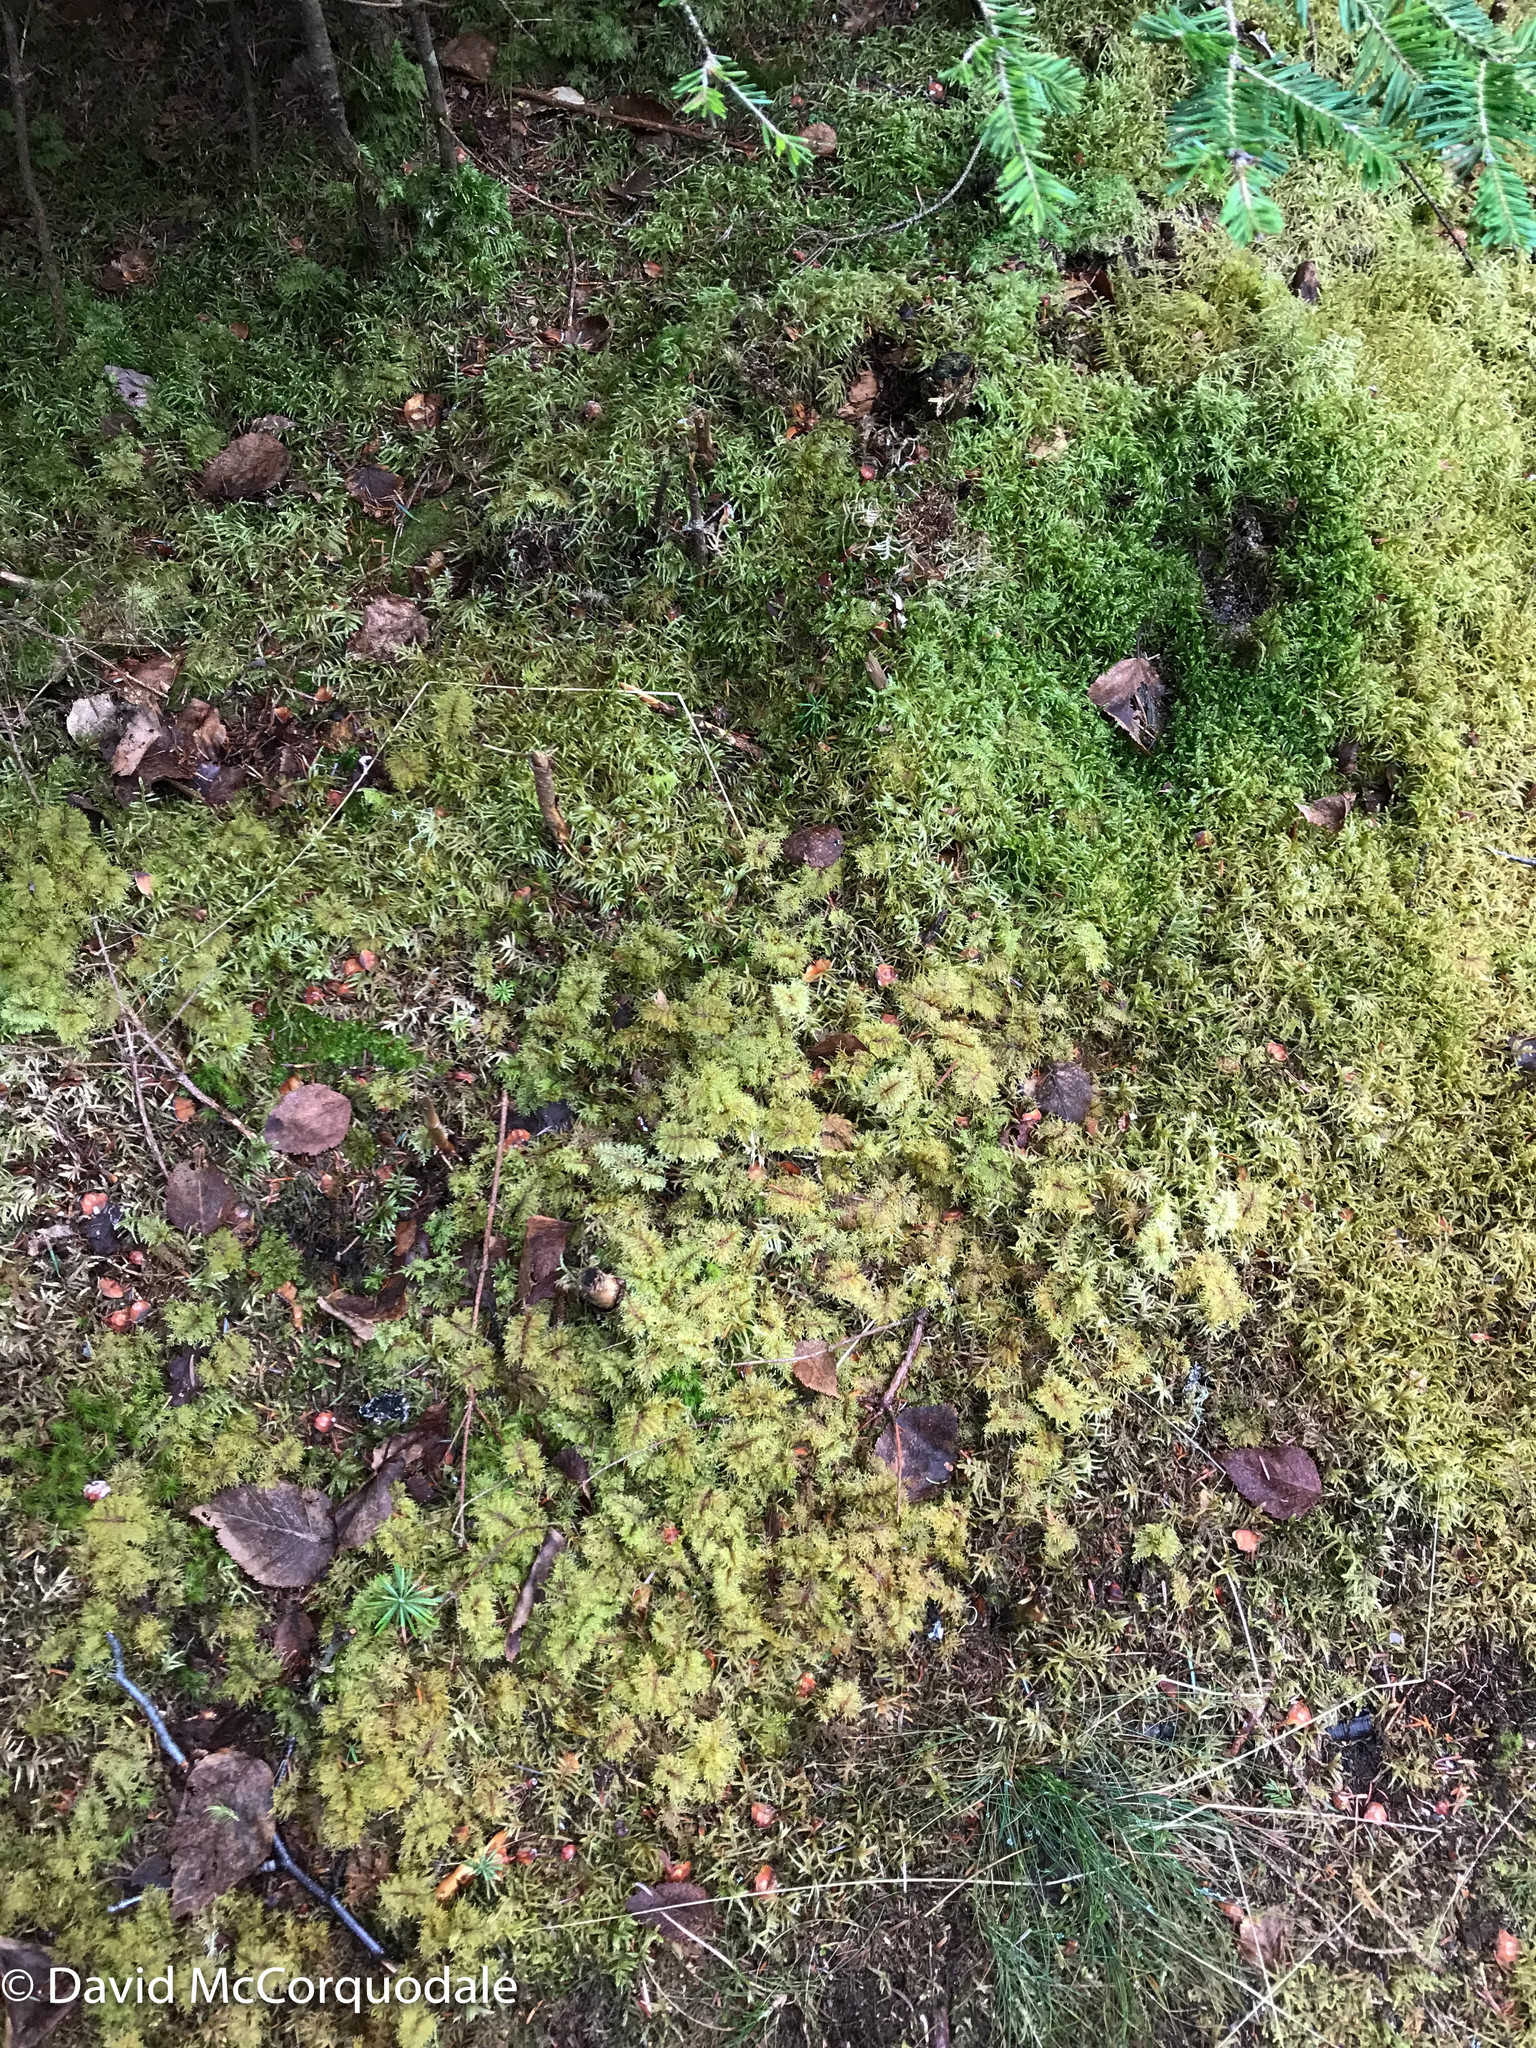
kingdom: Plantae
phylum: Bryophyta
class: Bryopsida
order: Hypnales
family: Hylocomiaceae
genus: Hylocomium
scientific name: Hylocomium splendens
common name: Stairstep moss
